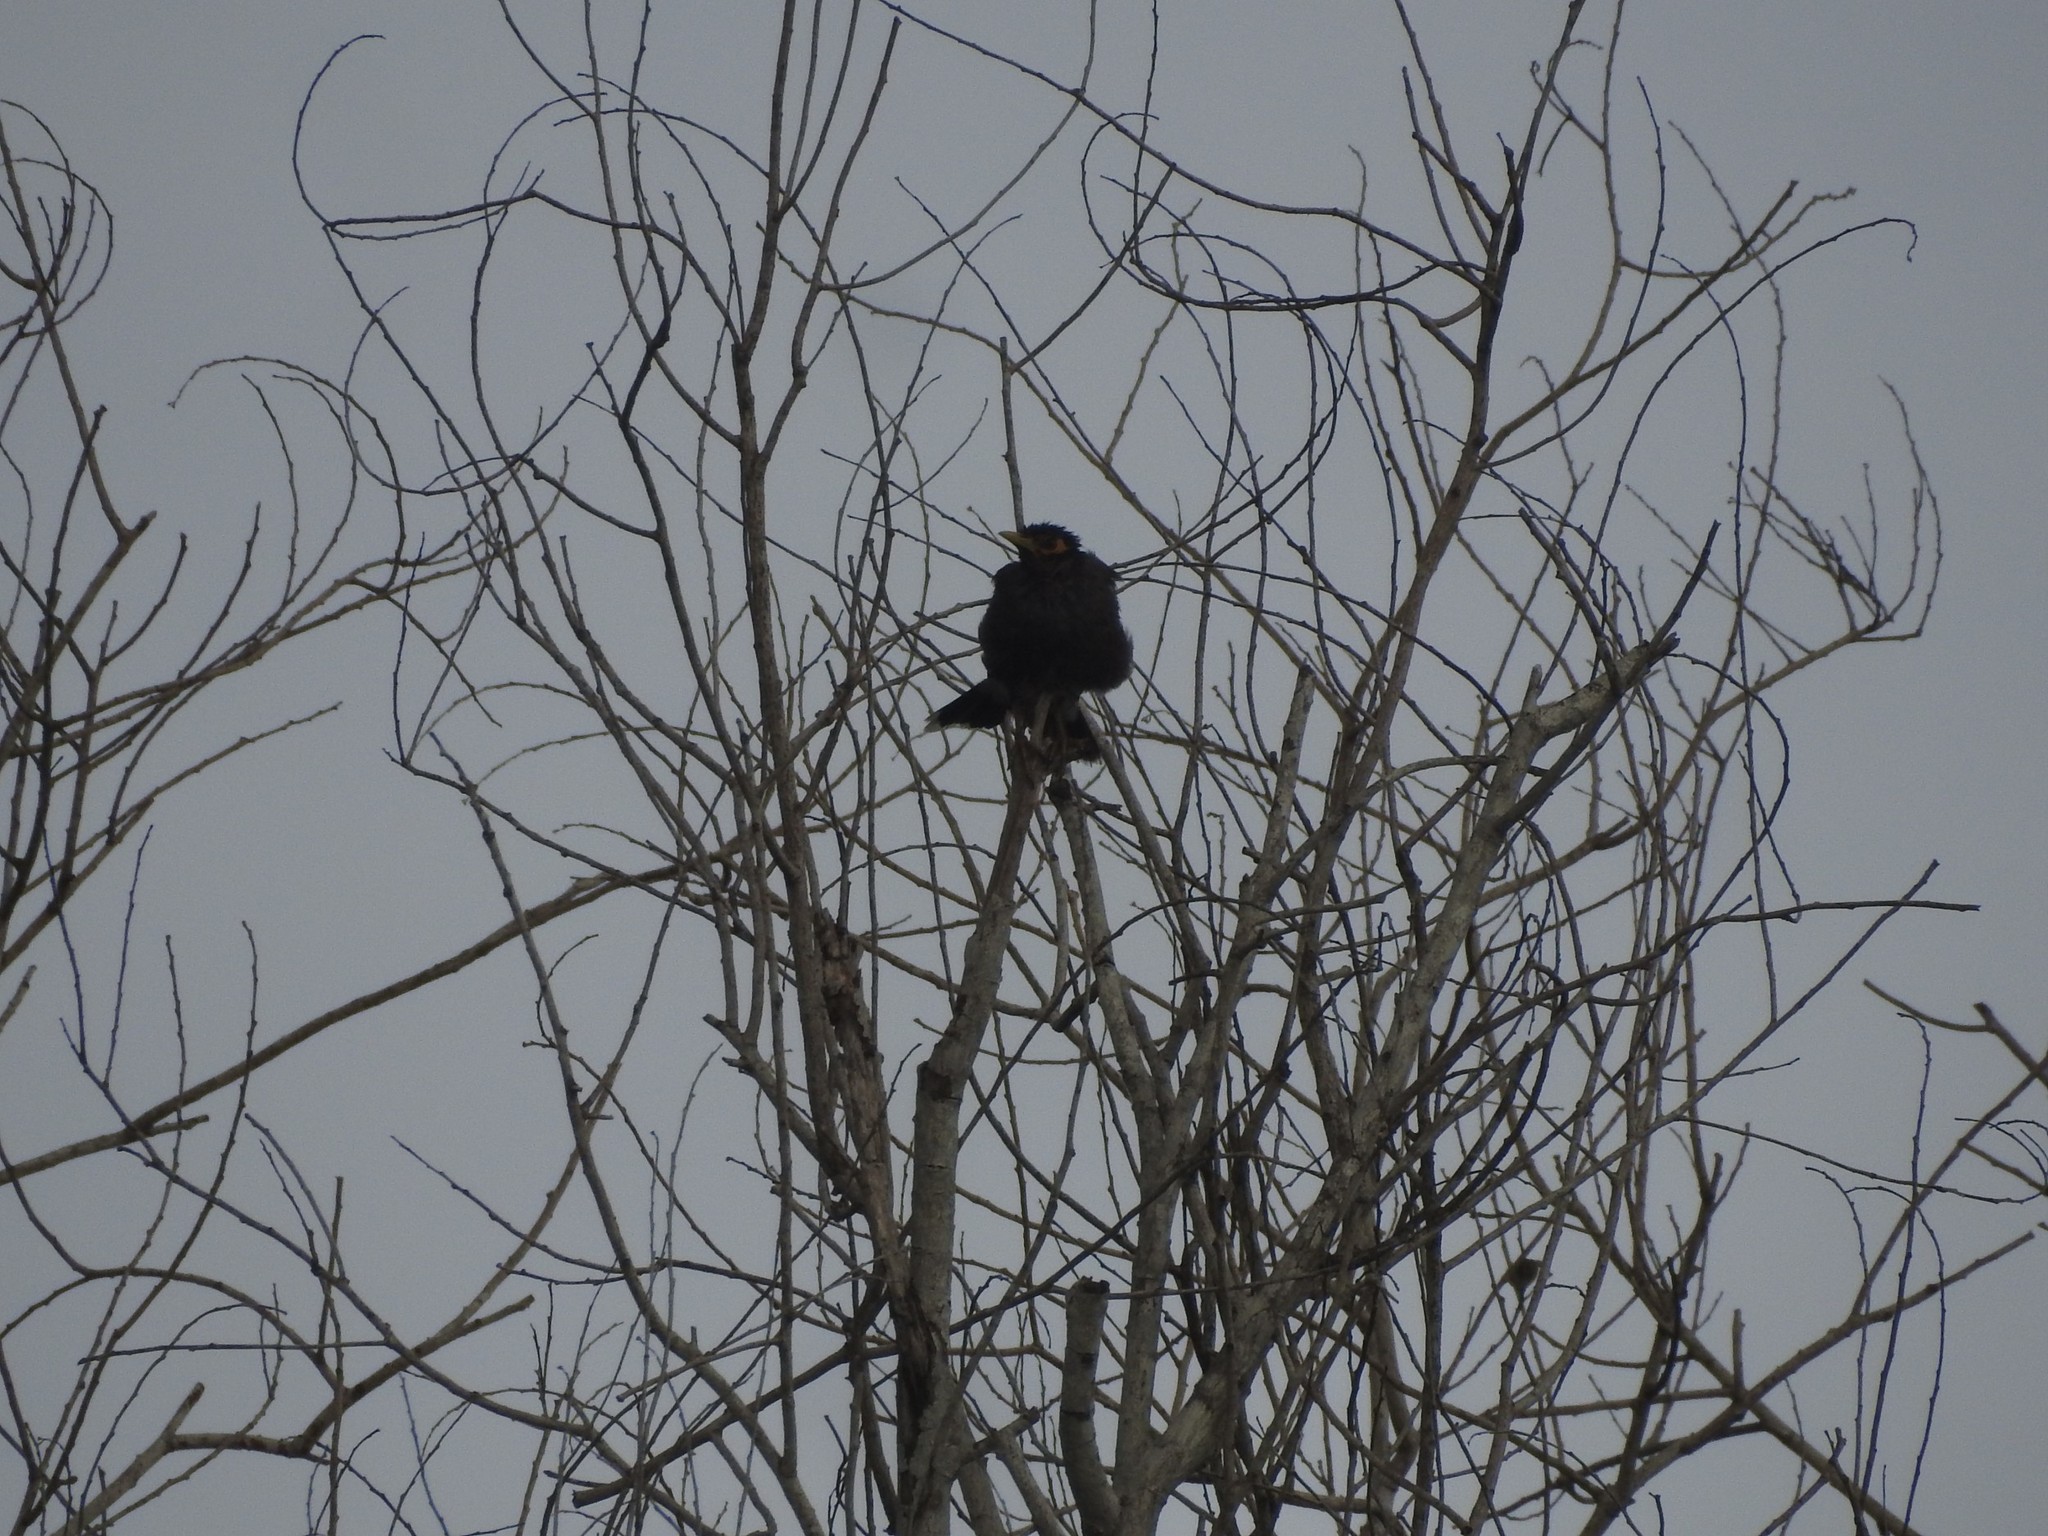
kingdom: Animalia
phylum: Chordata
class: Aves
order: Passeriformes
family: Sturnidae
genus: Acridotheres
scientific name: Acridotheres tristis
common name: Common myna
